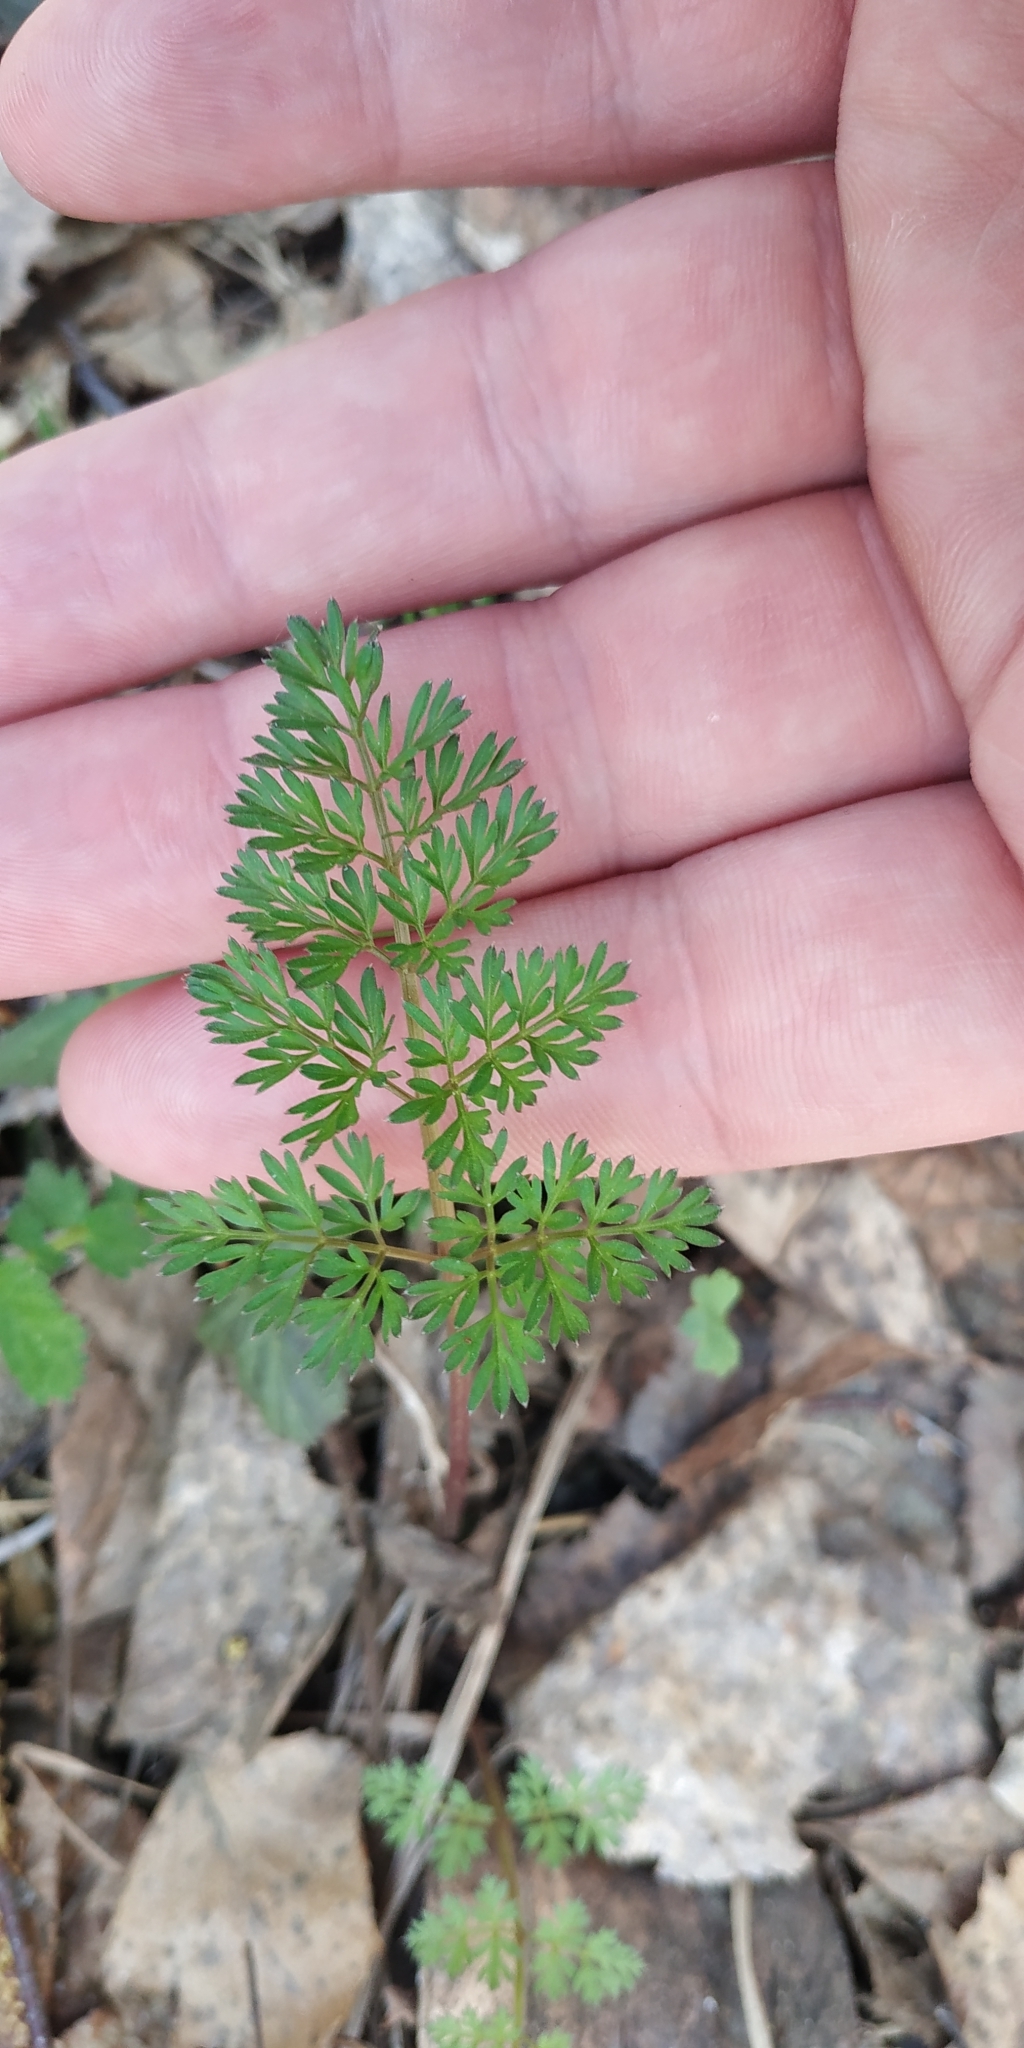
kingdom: Plantae
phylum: Tracheophyta
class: Magnoliopsida
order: Apiales
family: Apiaceae
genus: Selinum
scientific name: Selinum carvifolia
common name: Cambridge milk-parsley
